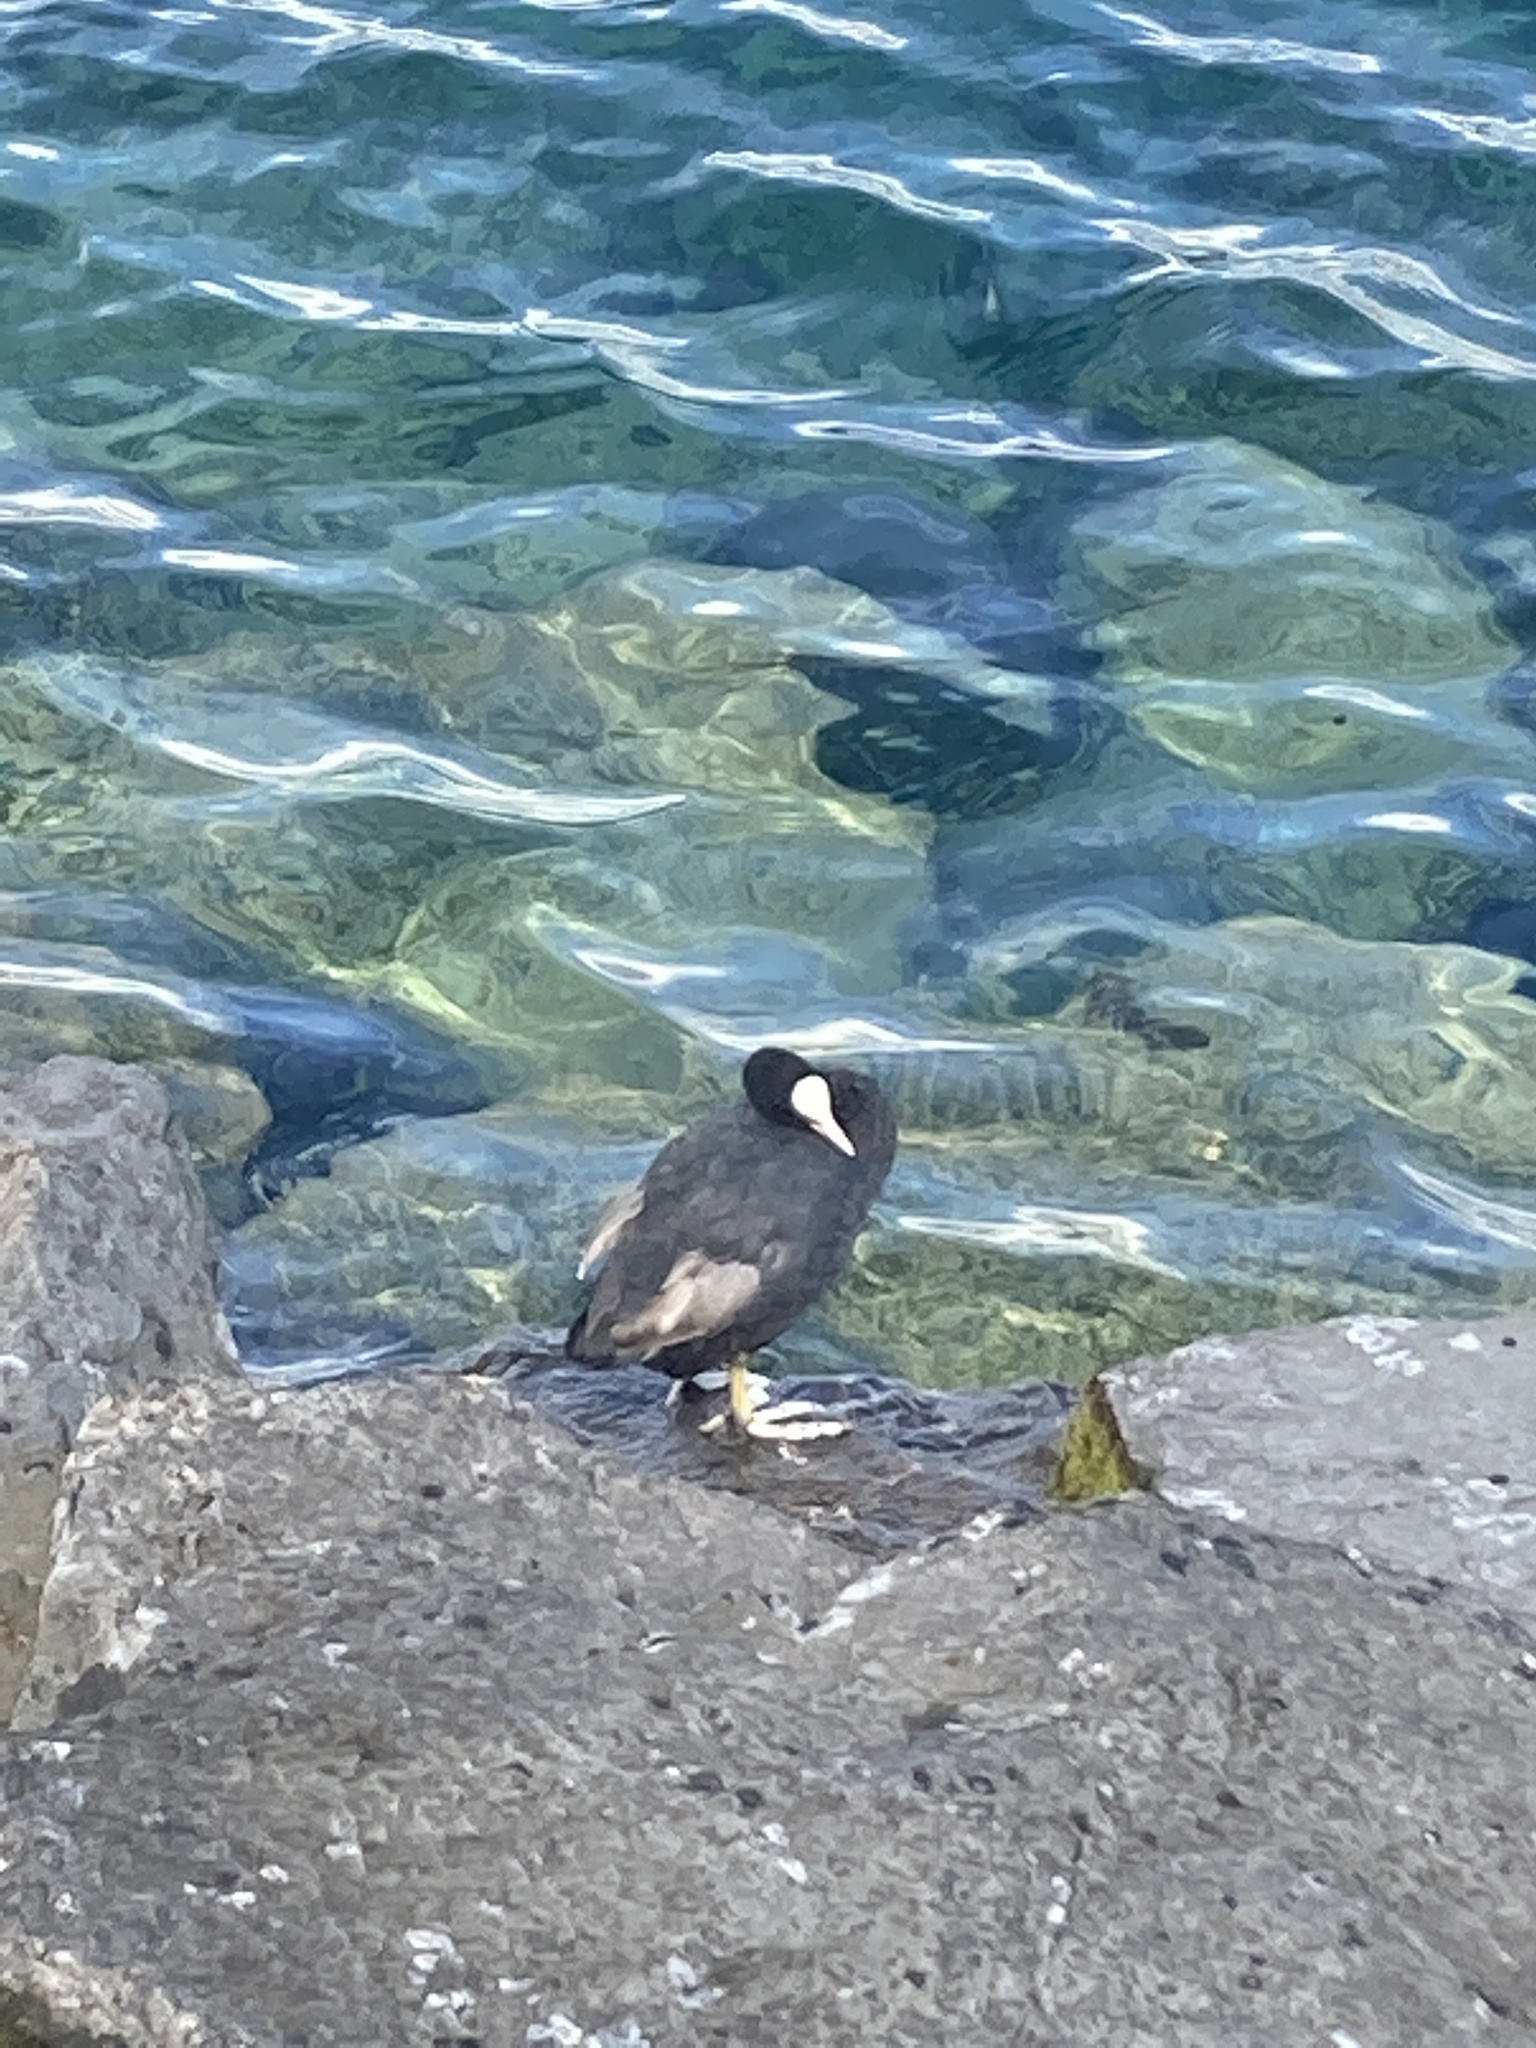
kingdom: Animalia
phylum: Chordata
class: Aves
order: Gruiformes
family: Rallidae
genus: Fulica
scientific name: Fulica atra
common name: Eurasian coot
